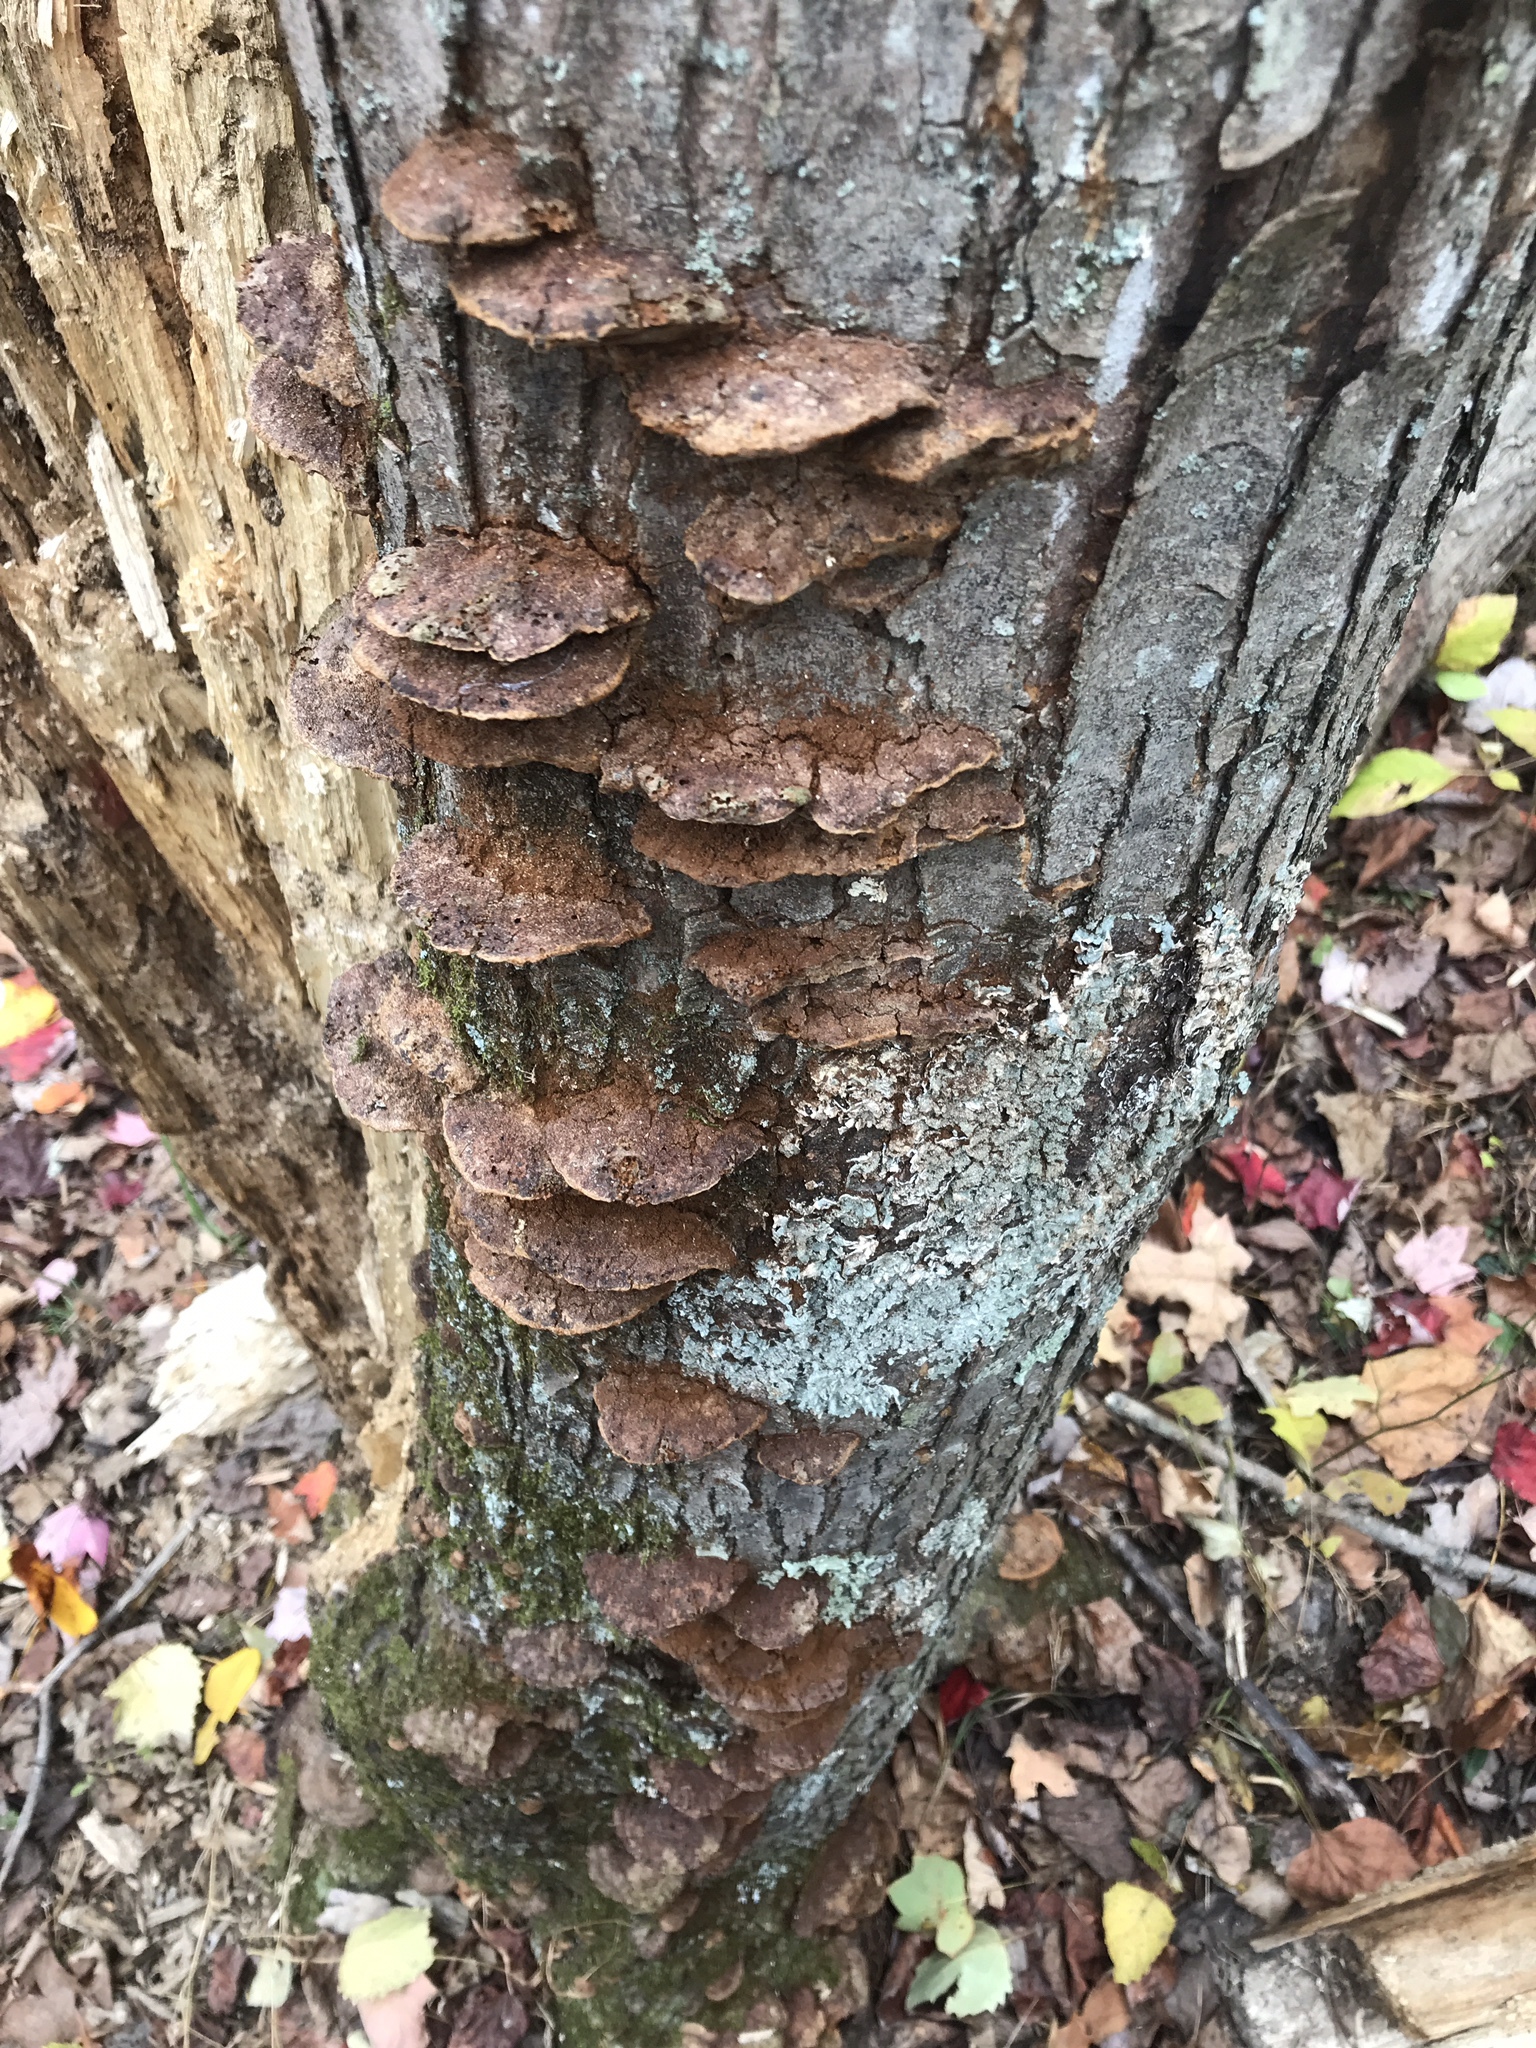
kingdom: Fungi
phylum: Basidiomycota
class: Agaricomycetes
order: Hymenochaetales
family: Hymenochaetaceae
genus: Phellinus
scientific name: Phellinus gilvus
